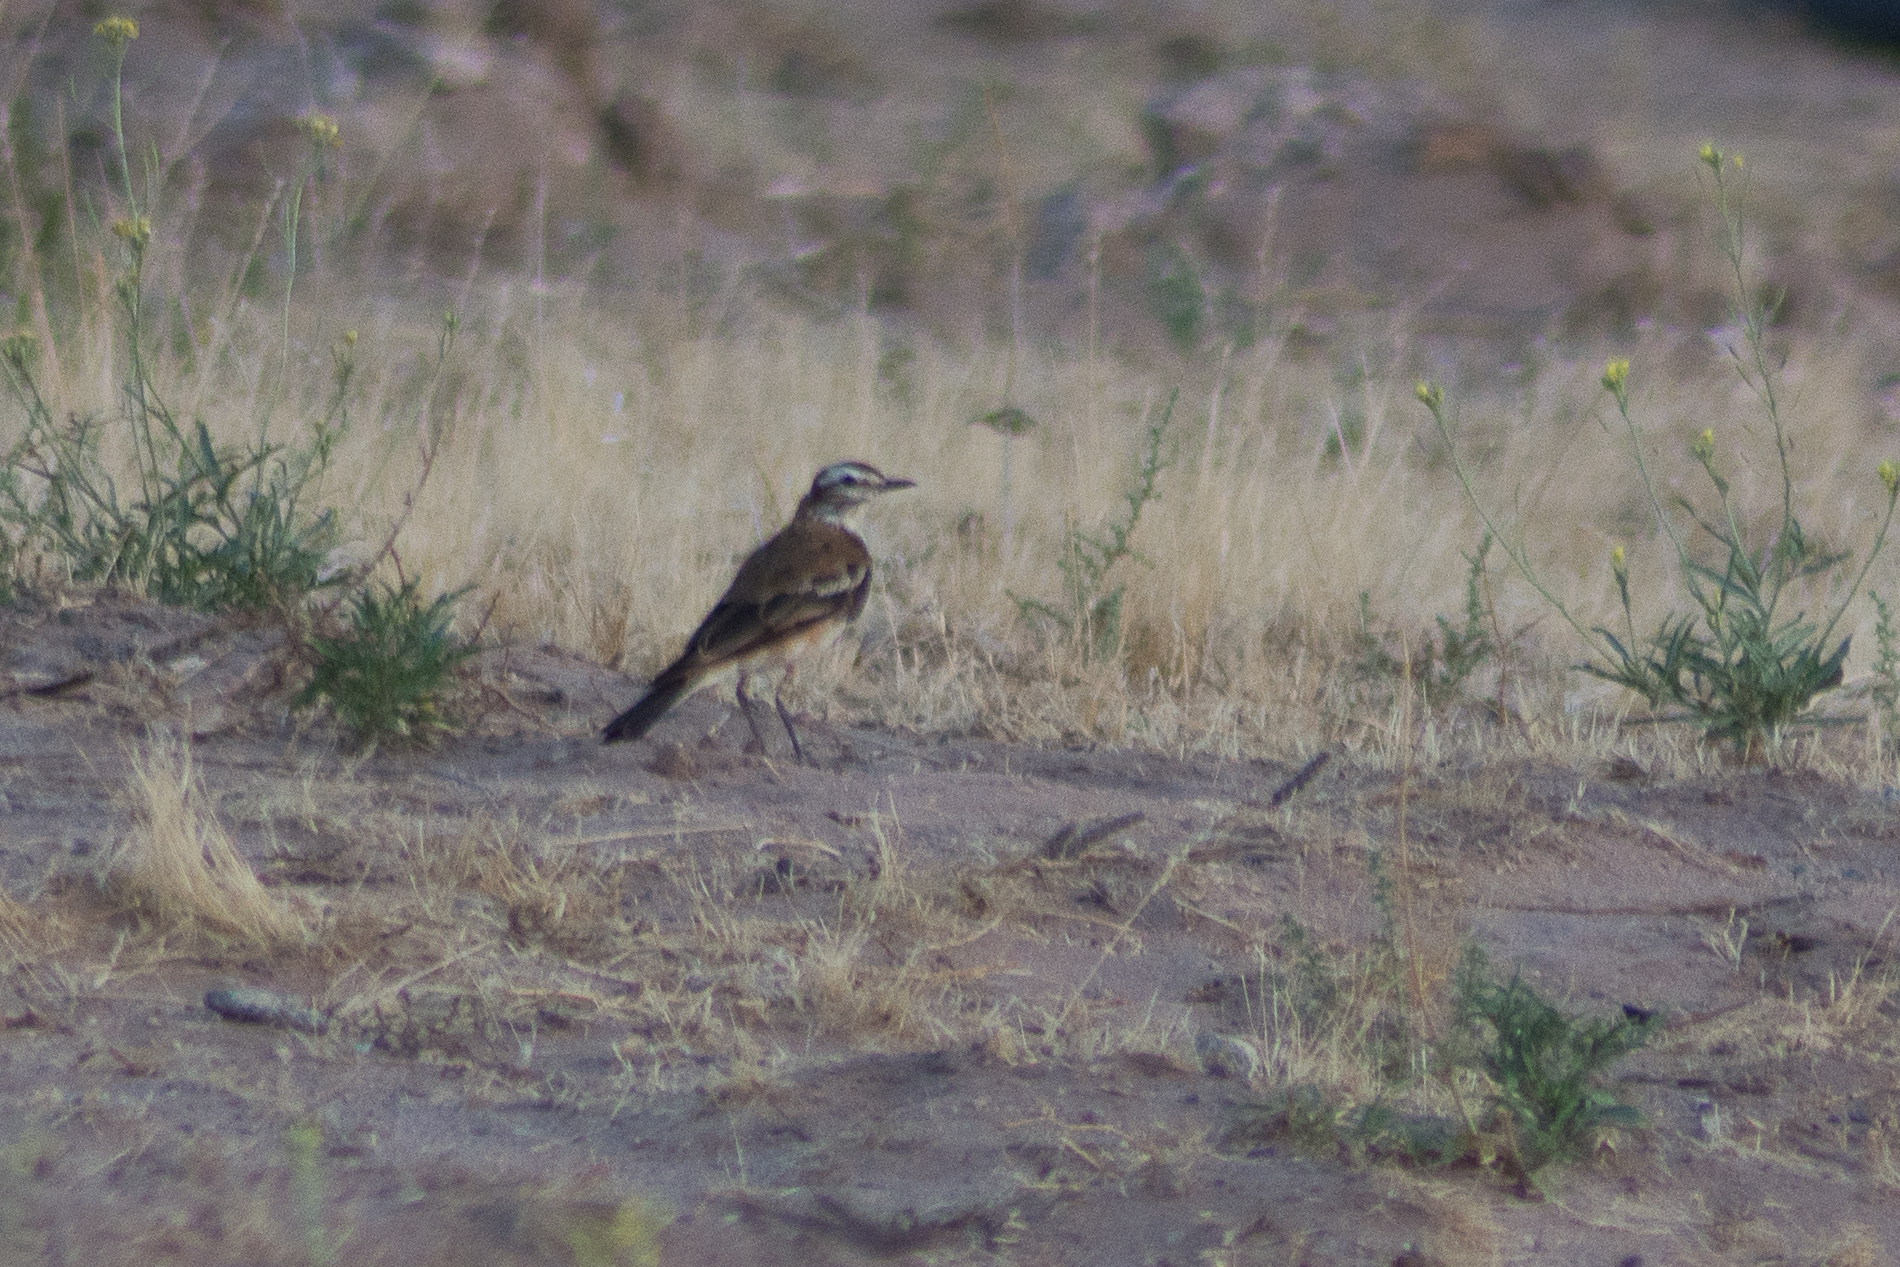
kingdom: Animalia
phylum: Chordata
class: Aves
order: Passeriformes
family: Tyrannidae
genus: Xolmis
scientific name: Xolmis rubetra
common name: Rusty-backed monjita
